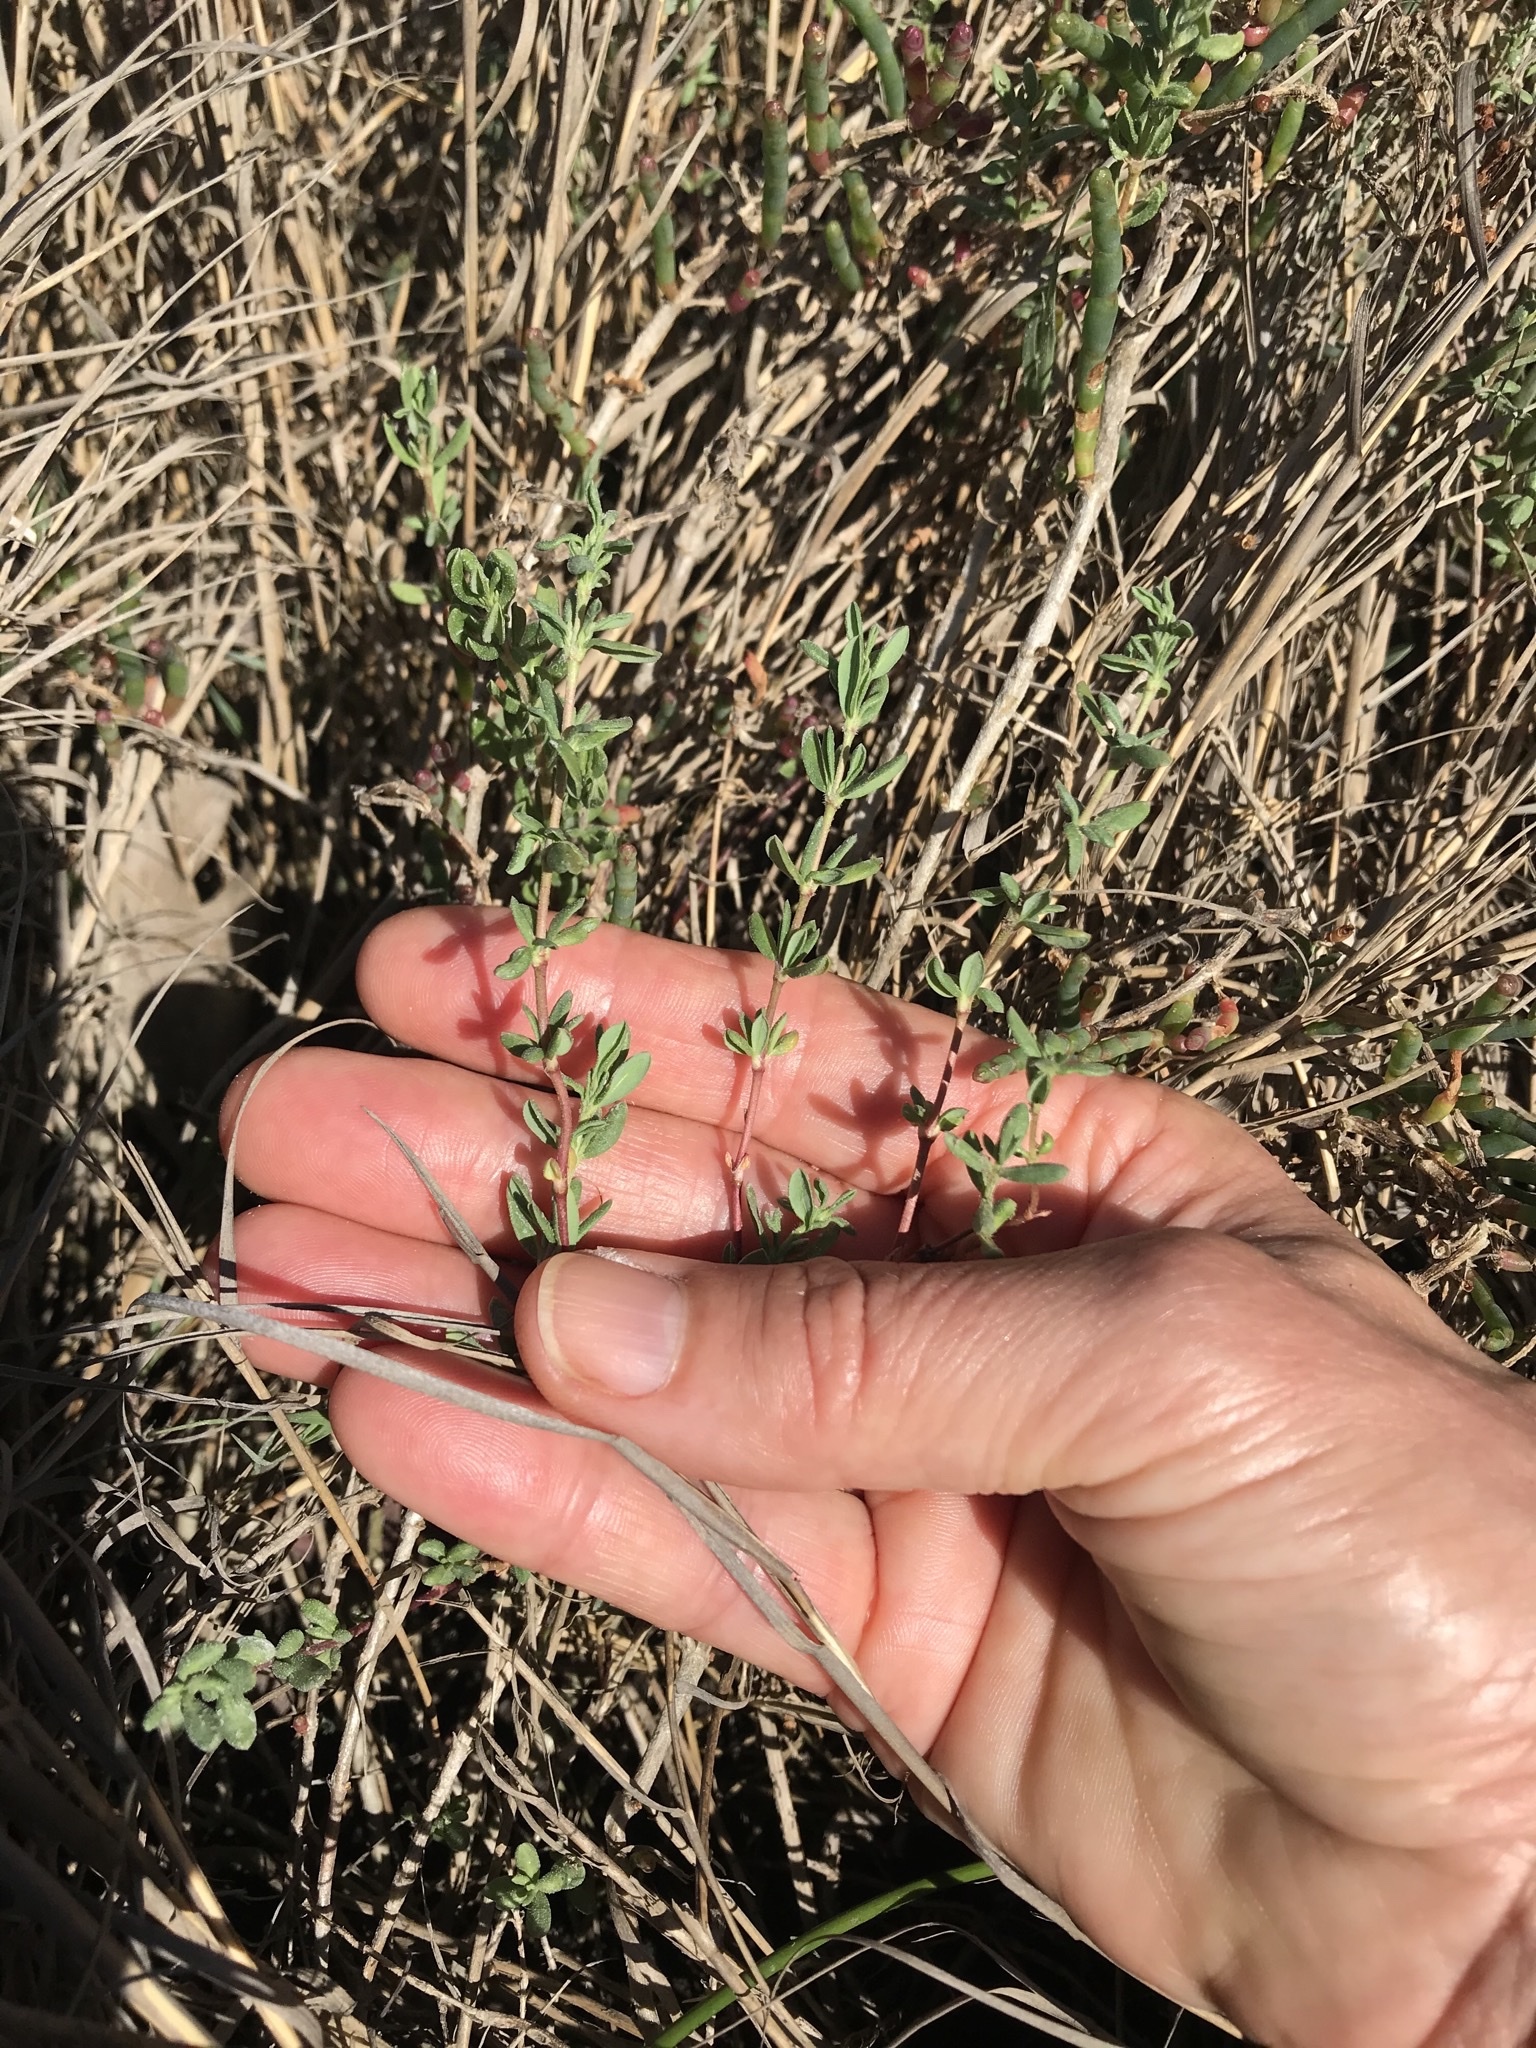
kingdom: Plantae
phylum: Tracheophyta
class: Magnoliopsida
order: Caryophyllales
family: Frankeniaceae
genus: Frankenia
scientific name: Frankenia salina
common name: Alkali seaheath
